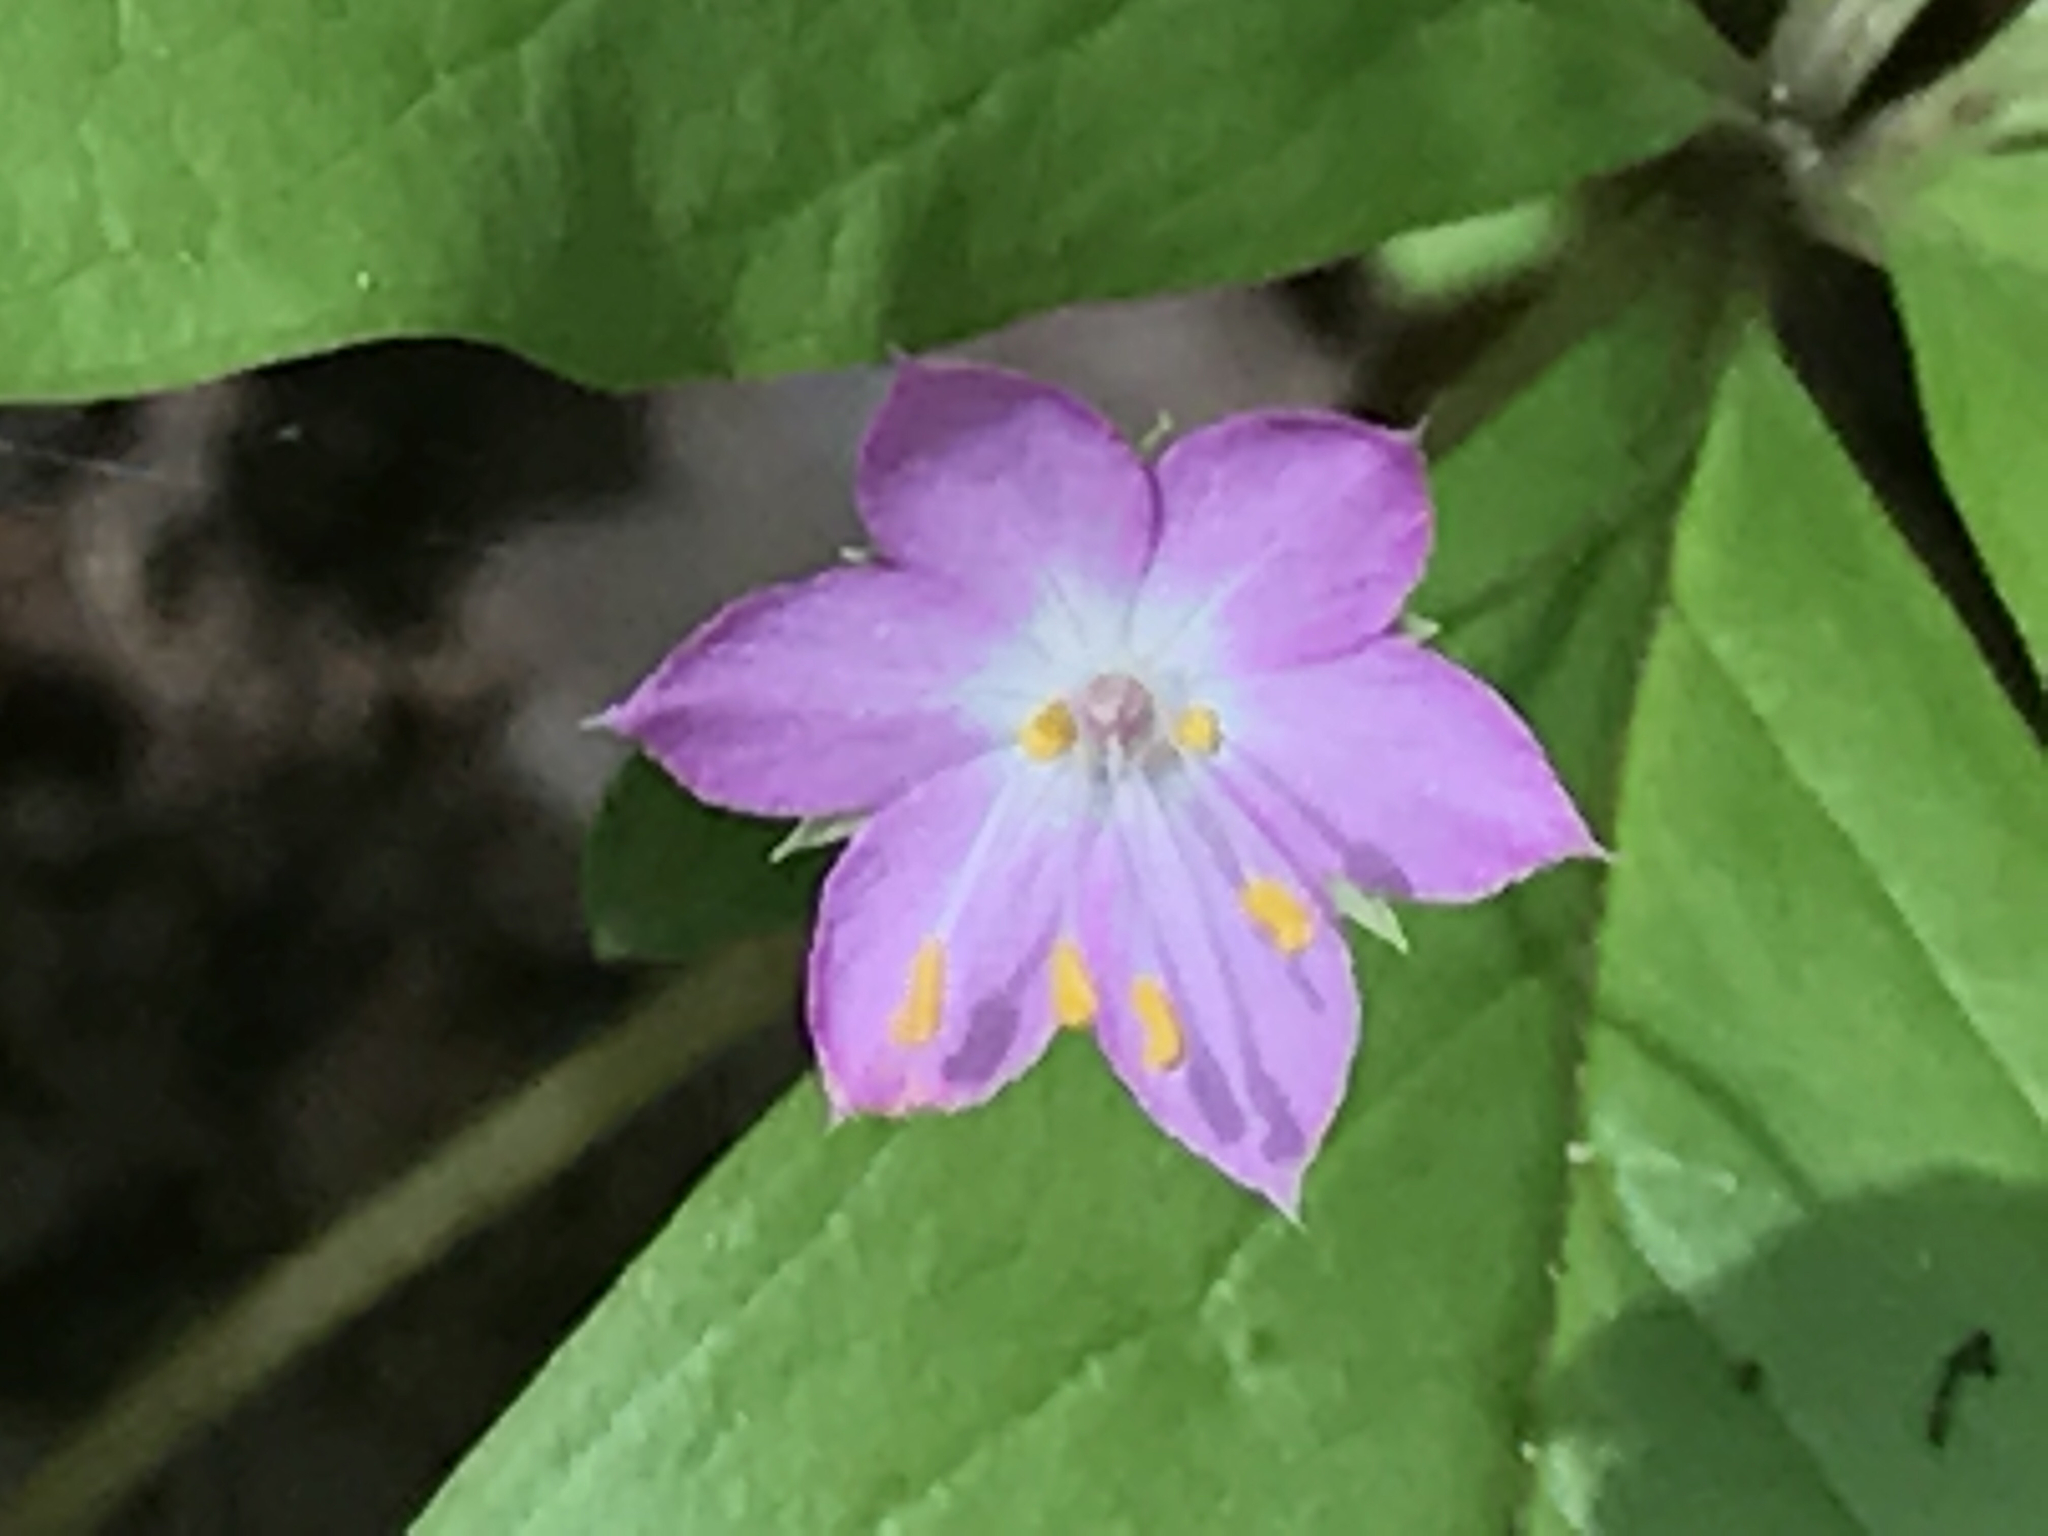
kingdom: Plantae
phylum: Tracheophyta
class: Magnoliopsida
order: Ericales
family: Primulaceae
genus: Lysimachia
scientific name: Lysimachia latifolia
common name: Pacific starflower
